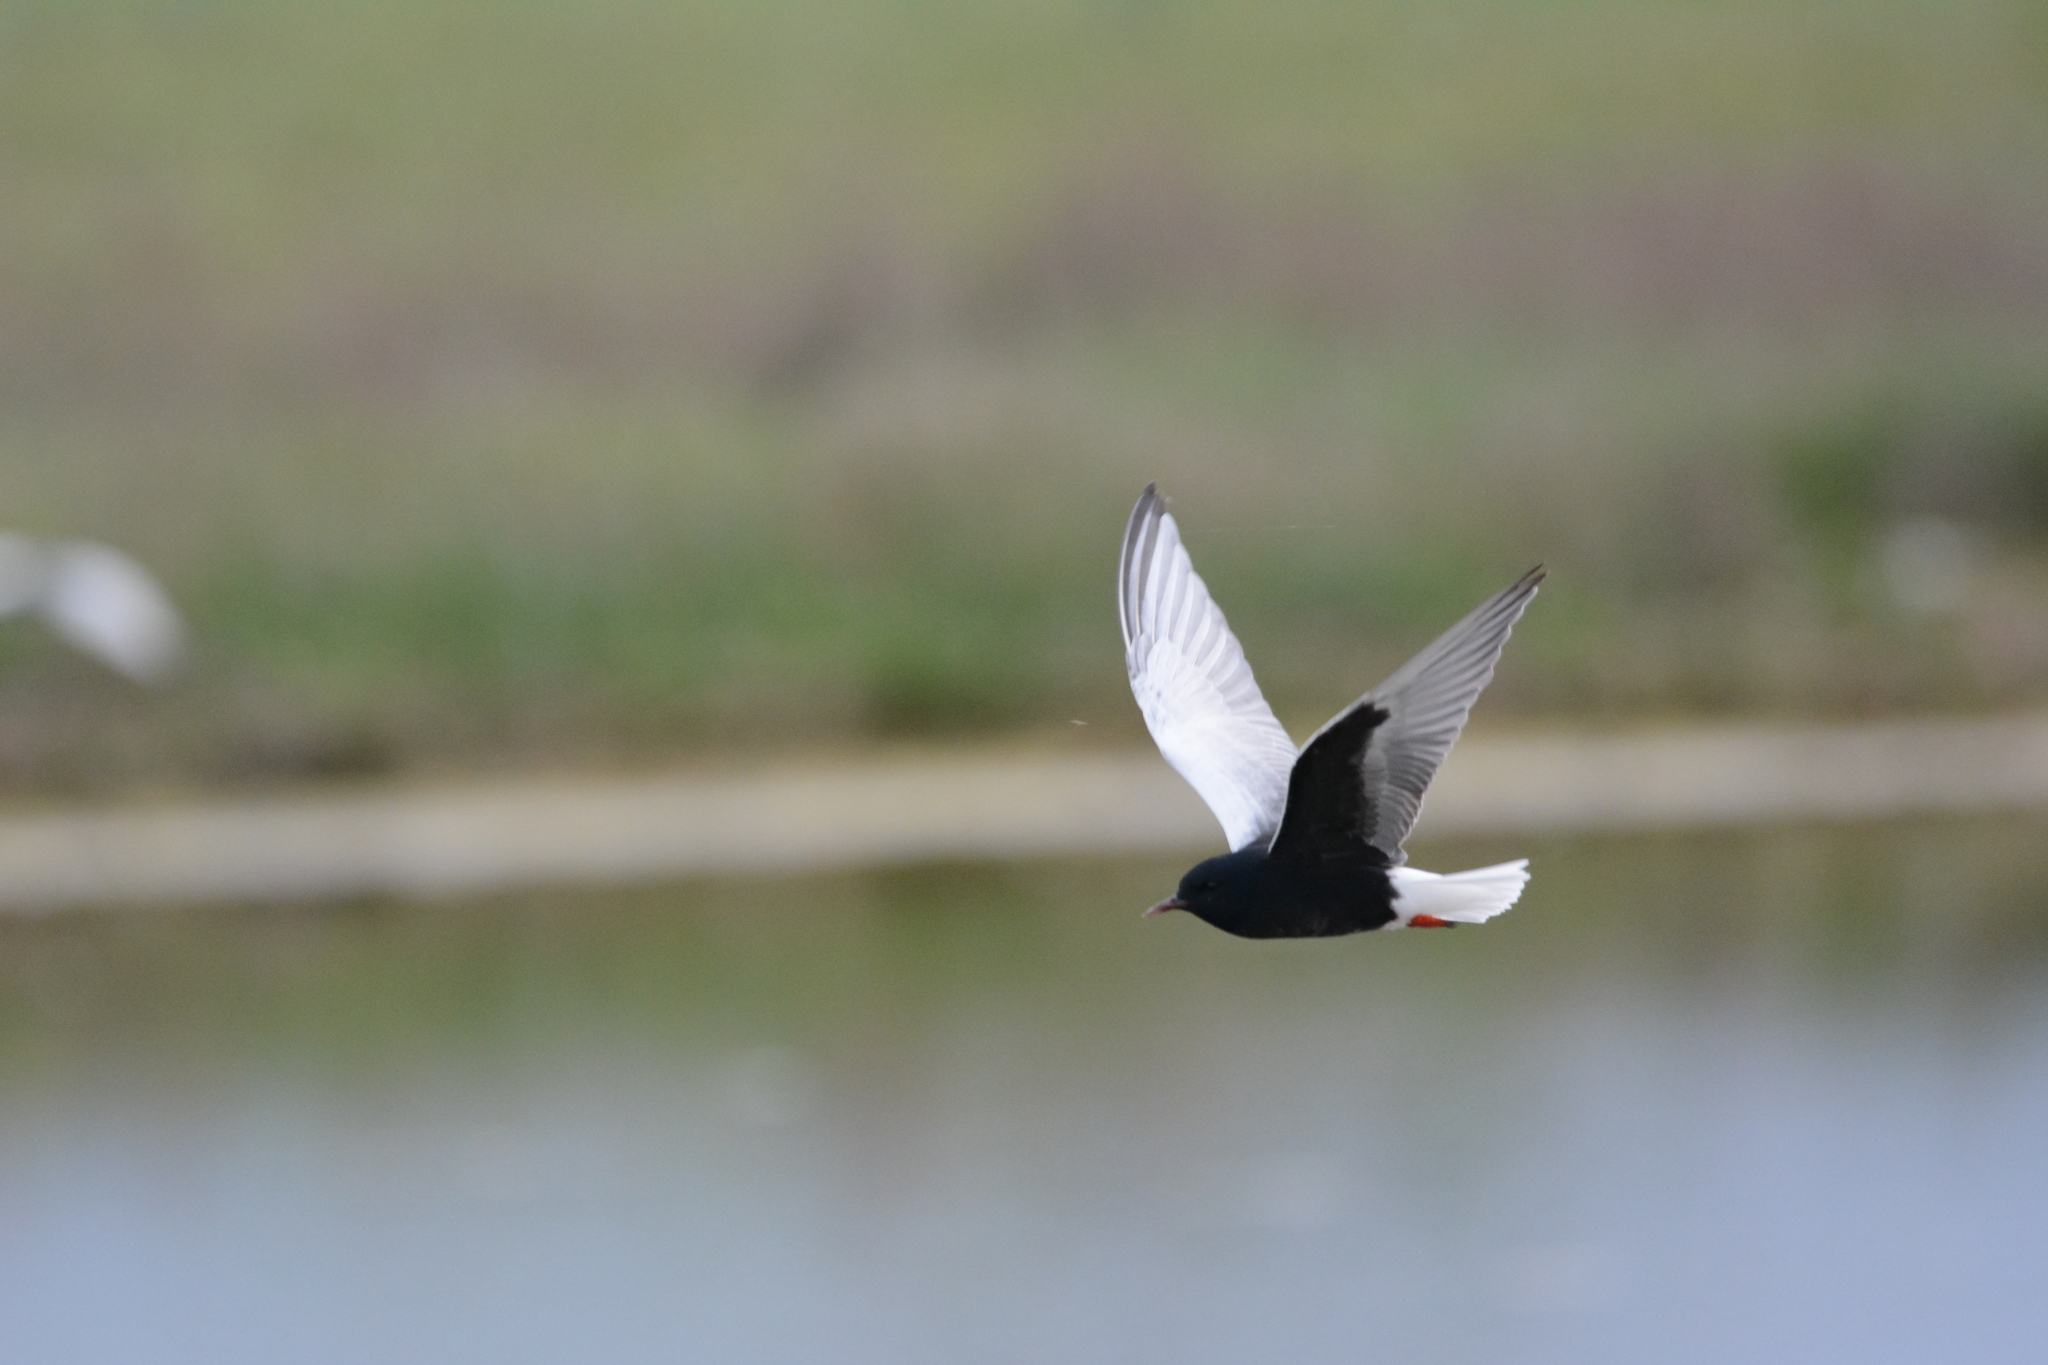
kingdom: Animalia
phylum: Chordata
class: Aves
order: Charadriiformes
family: Laridae
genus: Chlidonias
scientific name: Chlidonias leucopterus
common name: White-winged tern
